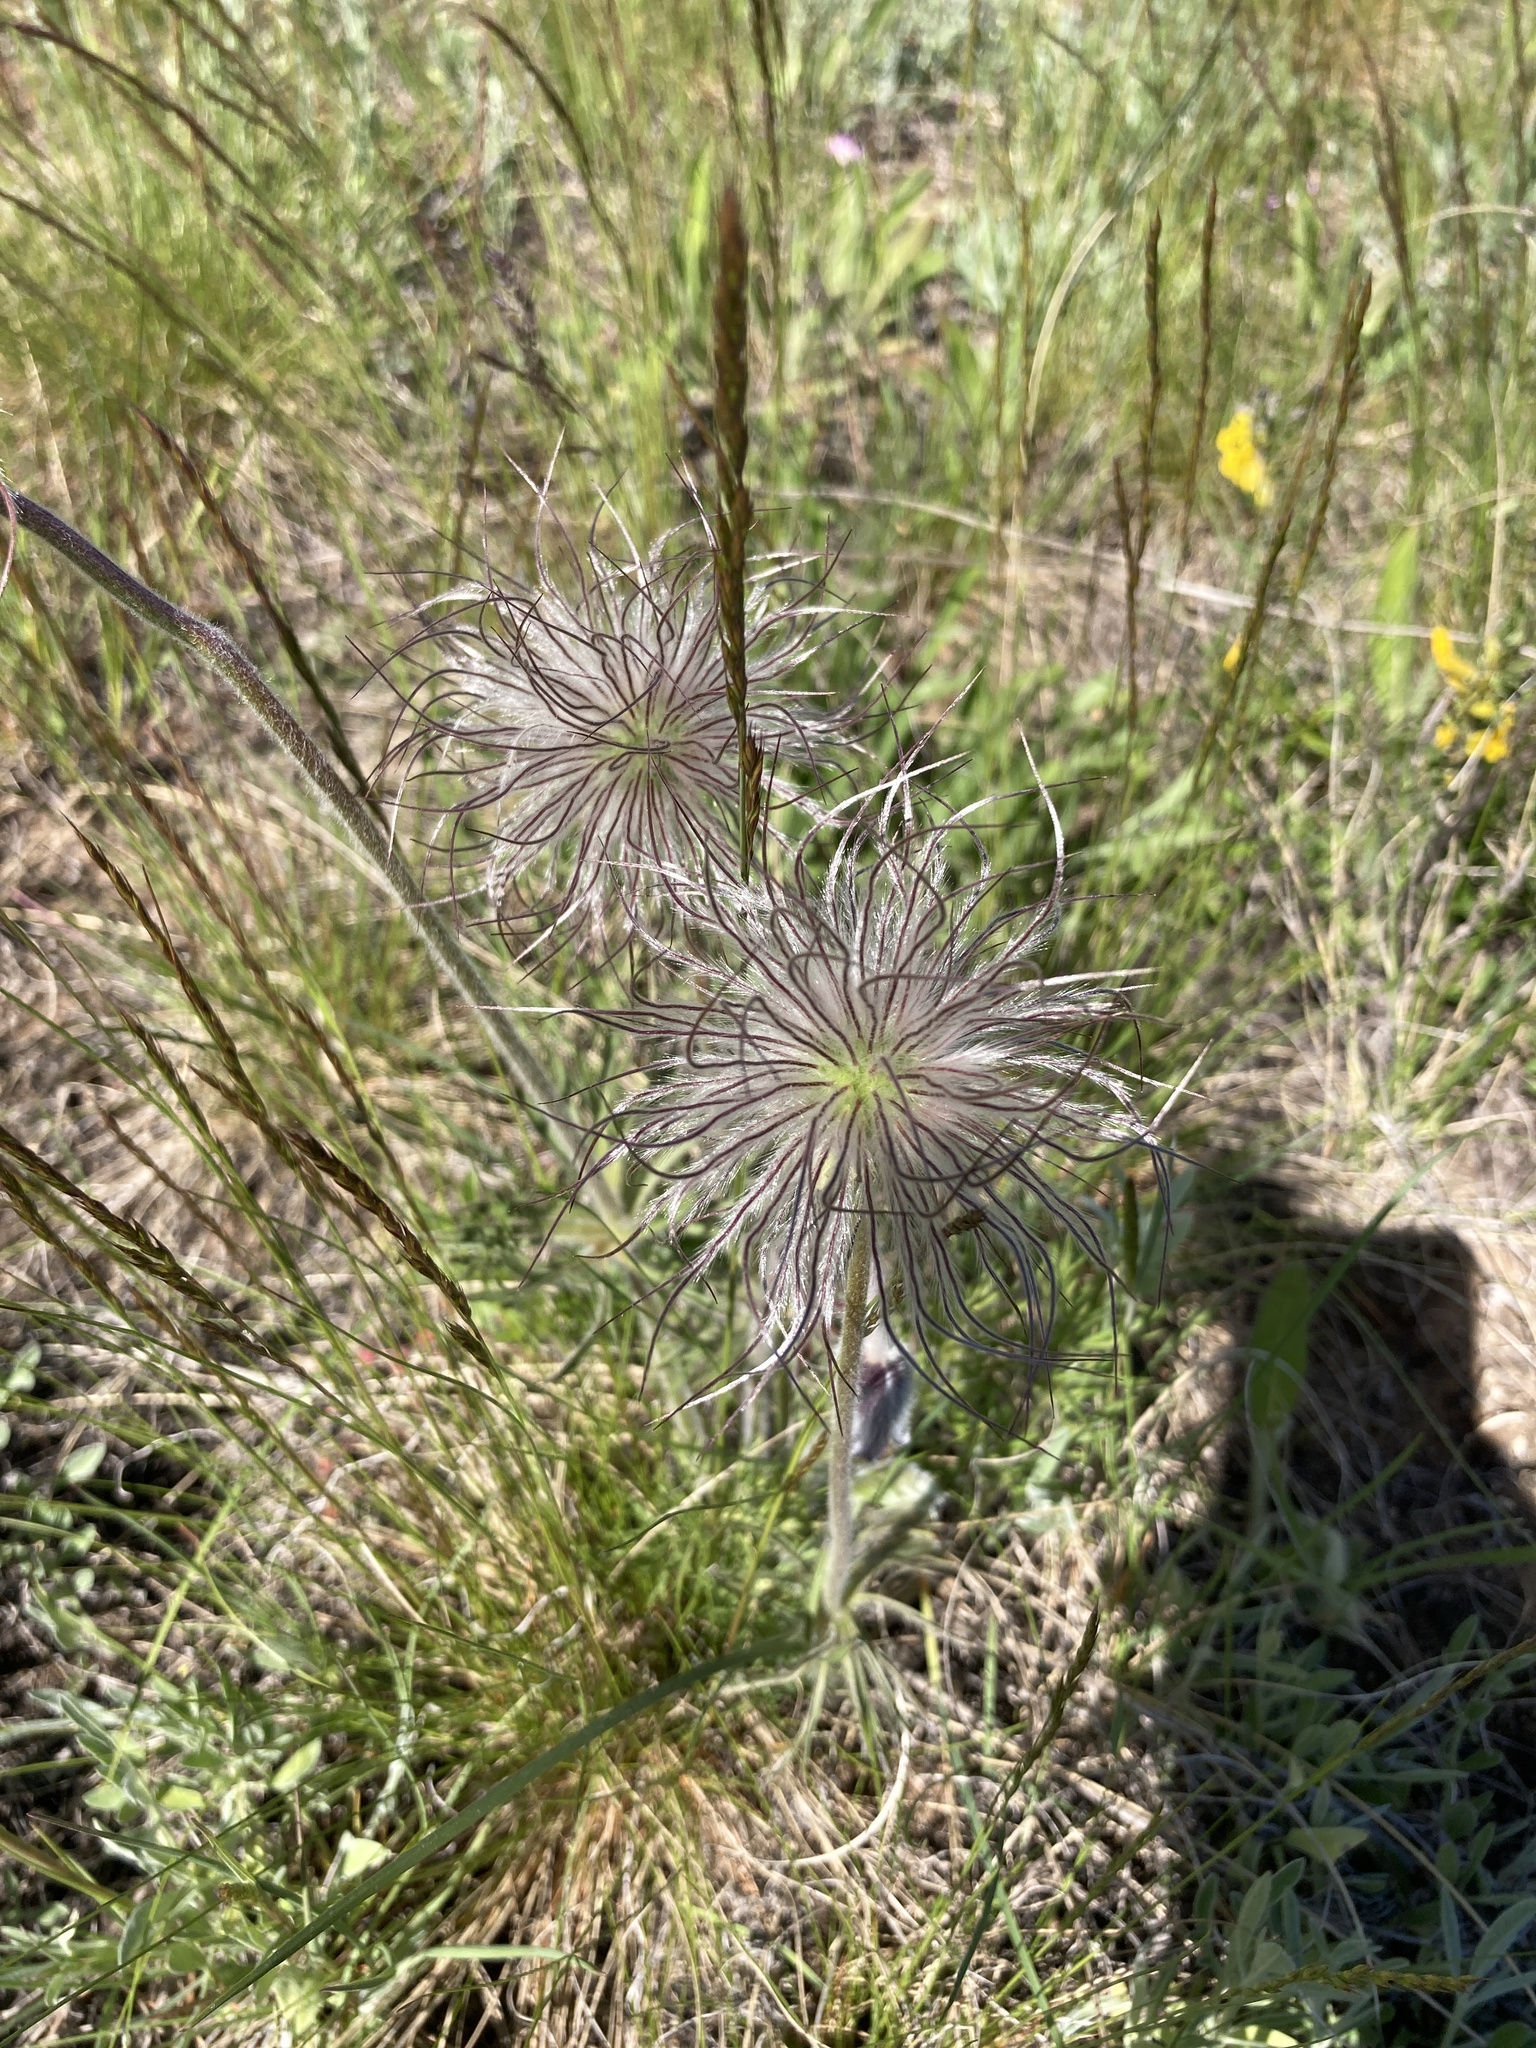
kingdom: Plantae
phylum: Tracheophyta
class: Magnoliopsida
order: Ranunculales
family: Ranunculaceae
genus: Pulsatilla
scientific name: Pulsatilla pratensis
